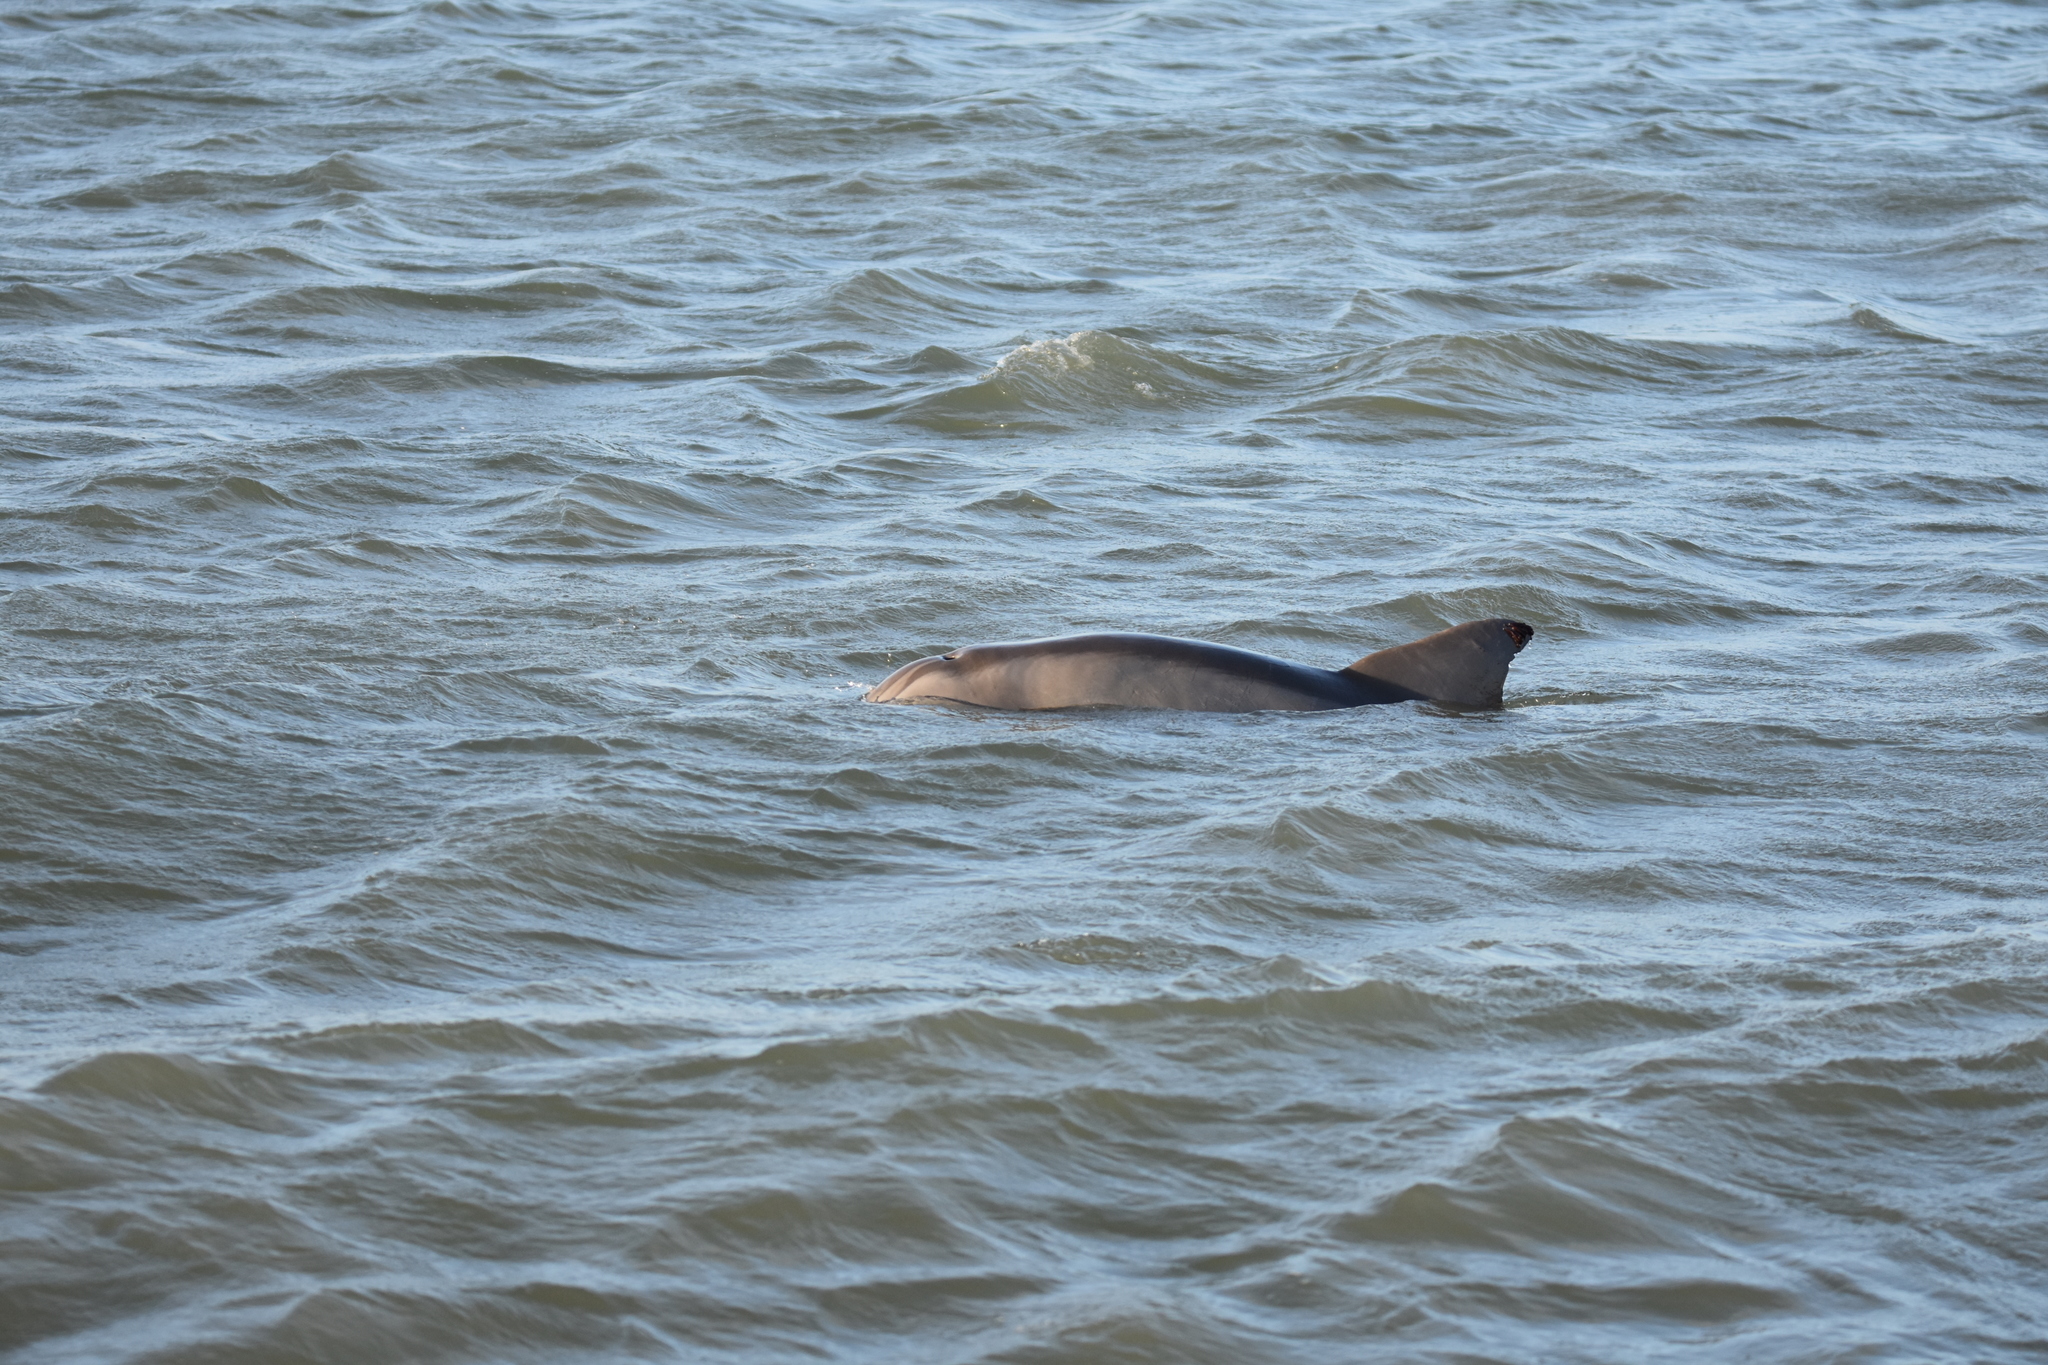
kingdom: Animalia
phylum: Chordata
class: Mammalia
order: Cetacea
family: Delphinidae
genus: Tursiops
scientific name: Tursiops truncatus
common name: Bottlenose dolphin
